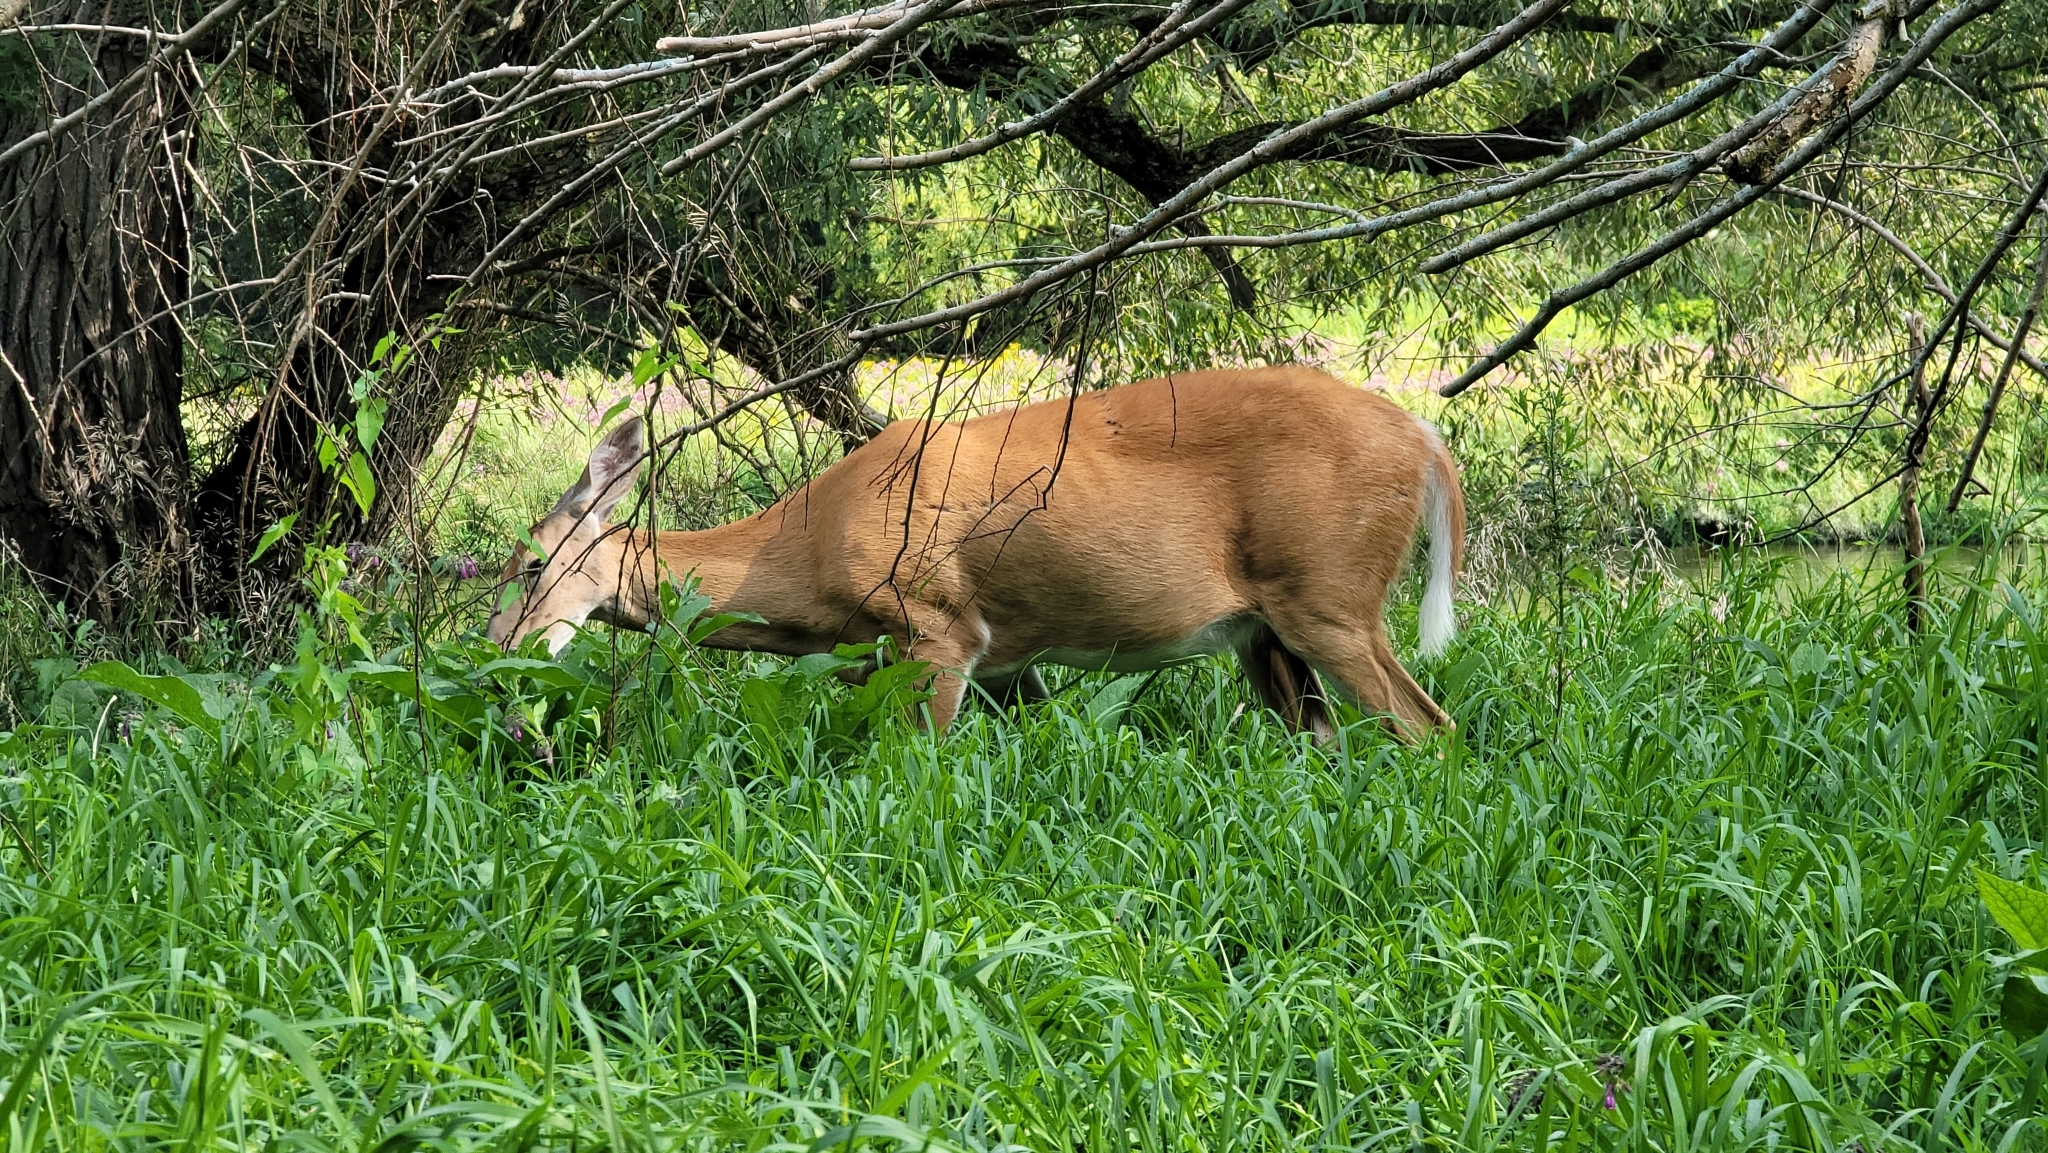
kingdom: Animalia
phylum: Chordata
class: Mammalia
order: Artiodactyla
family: Cervidae
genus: Odocoileus
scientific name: Odocoileus virginianus
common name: White-tailed deer
